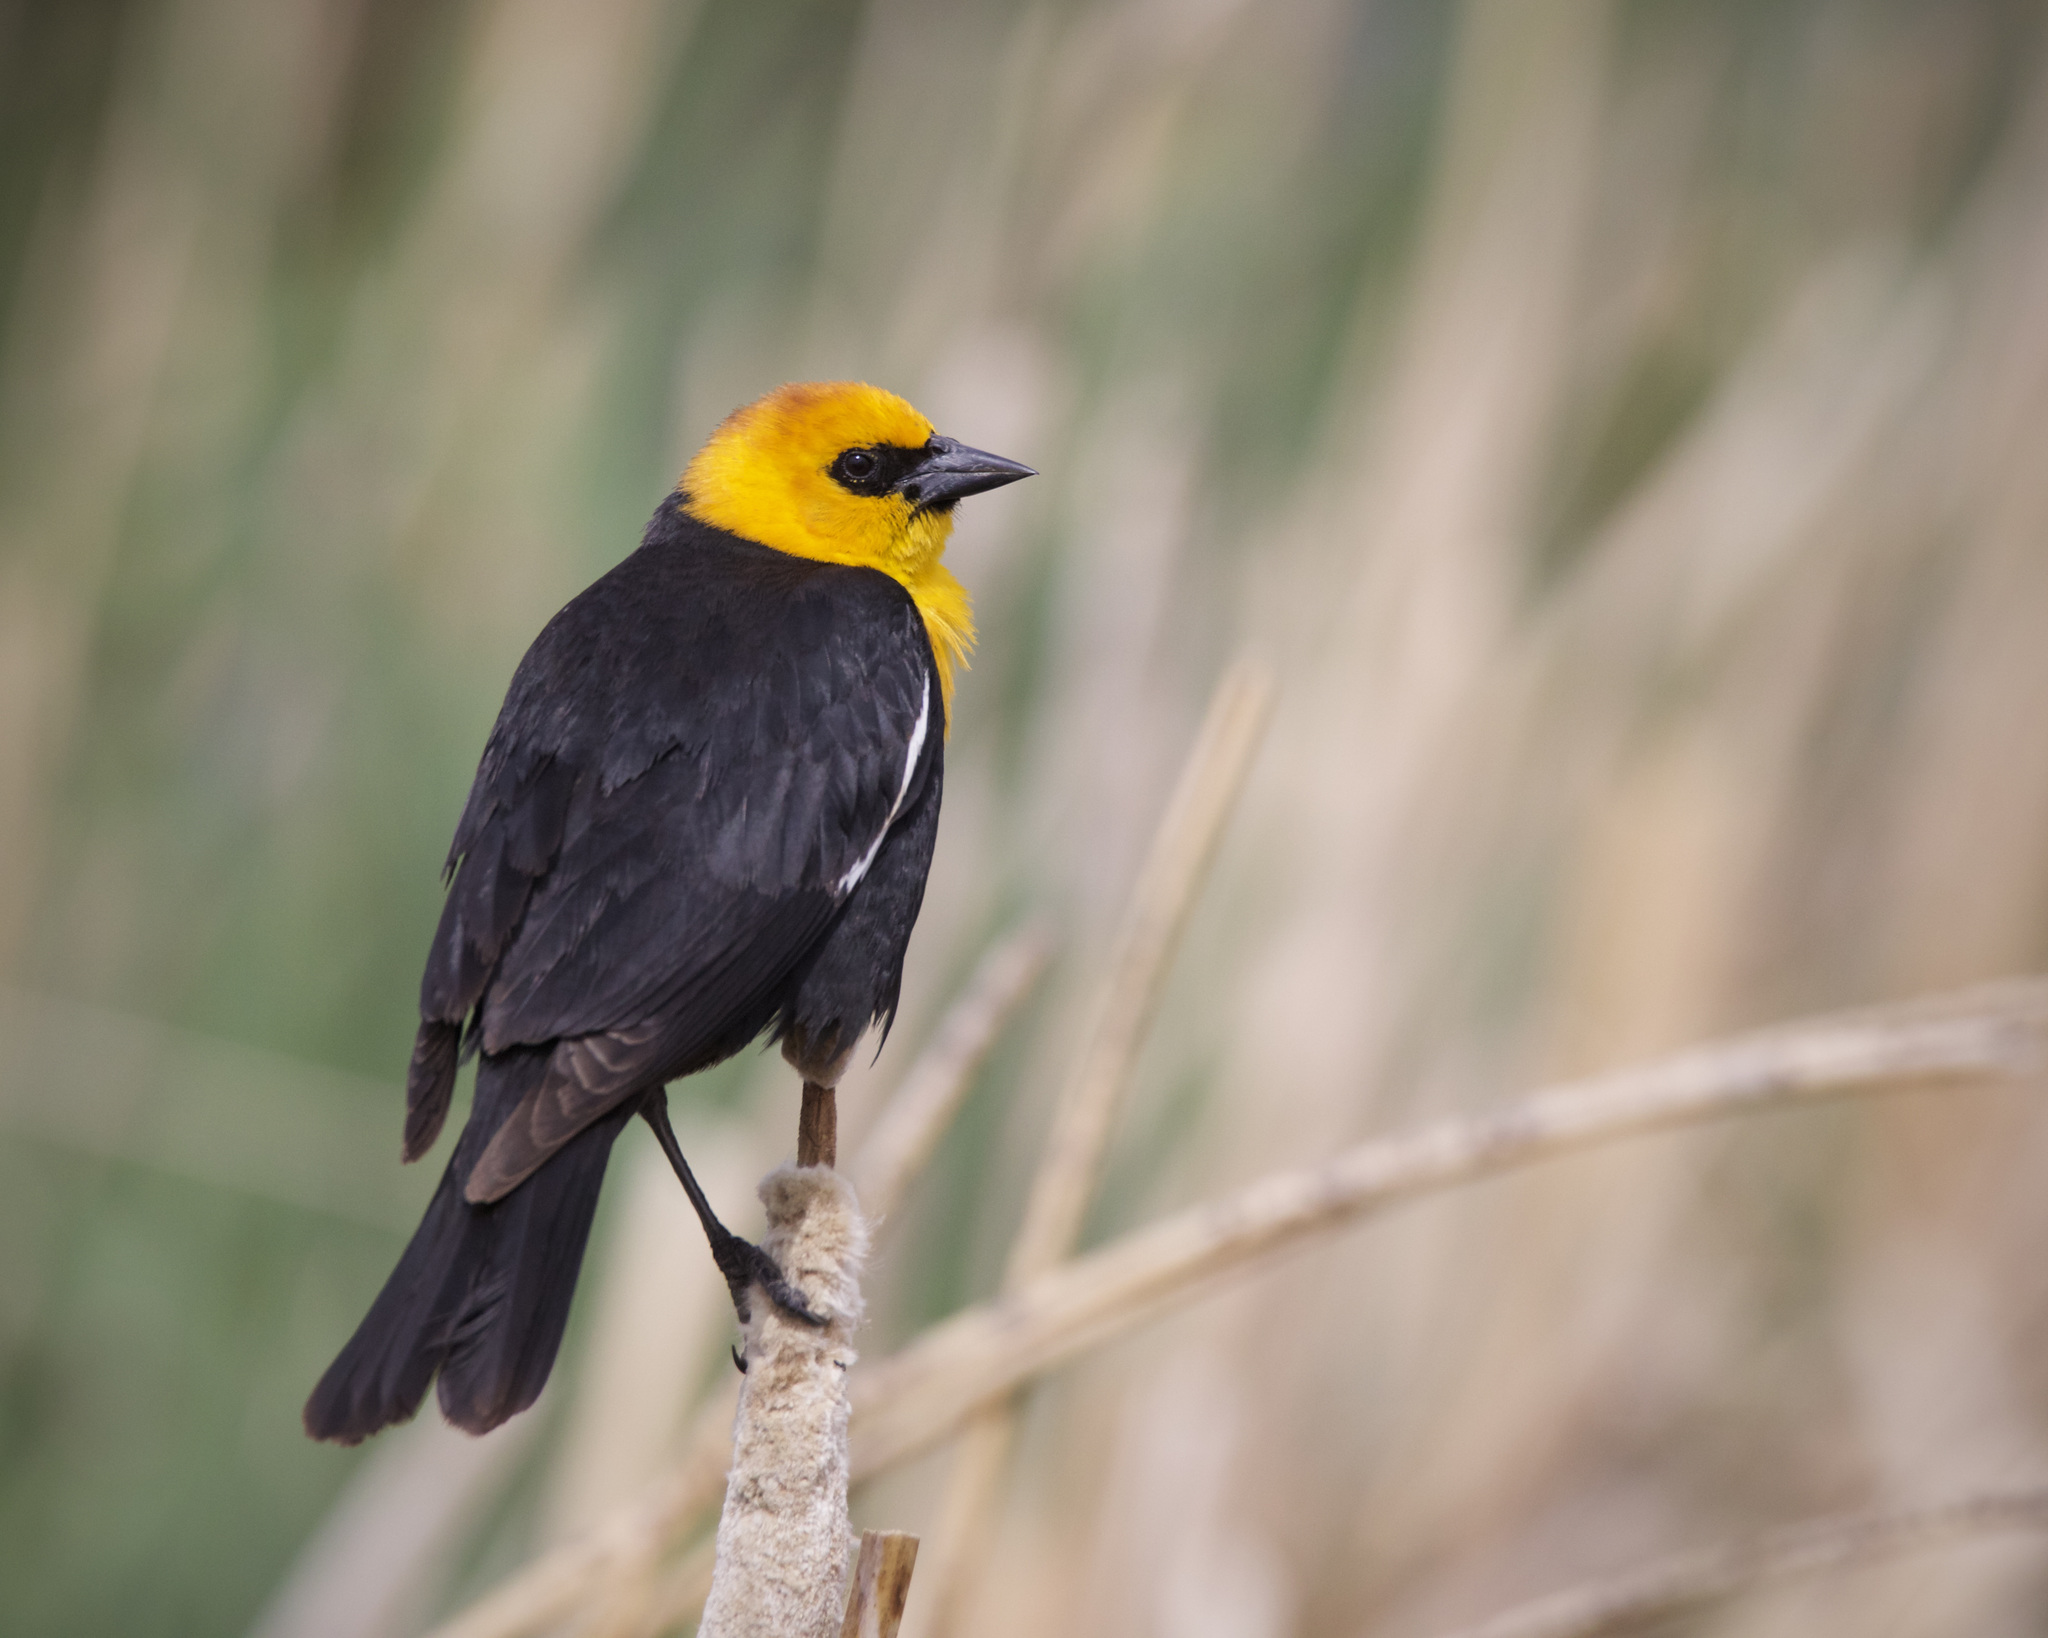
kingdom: Animalia
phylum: Chordata
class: Aves
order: Passeriformes
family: Icteridae
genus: Xanthocephalus
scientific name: Xanthocephalus xanthocephalus
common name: Yellow-headed blackbird
